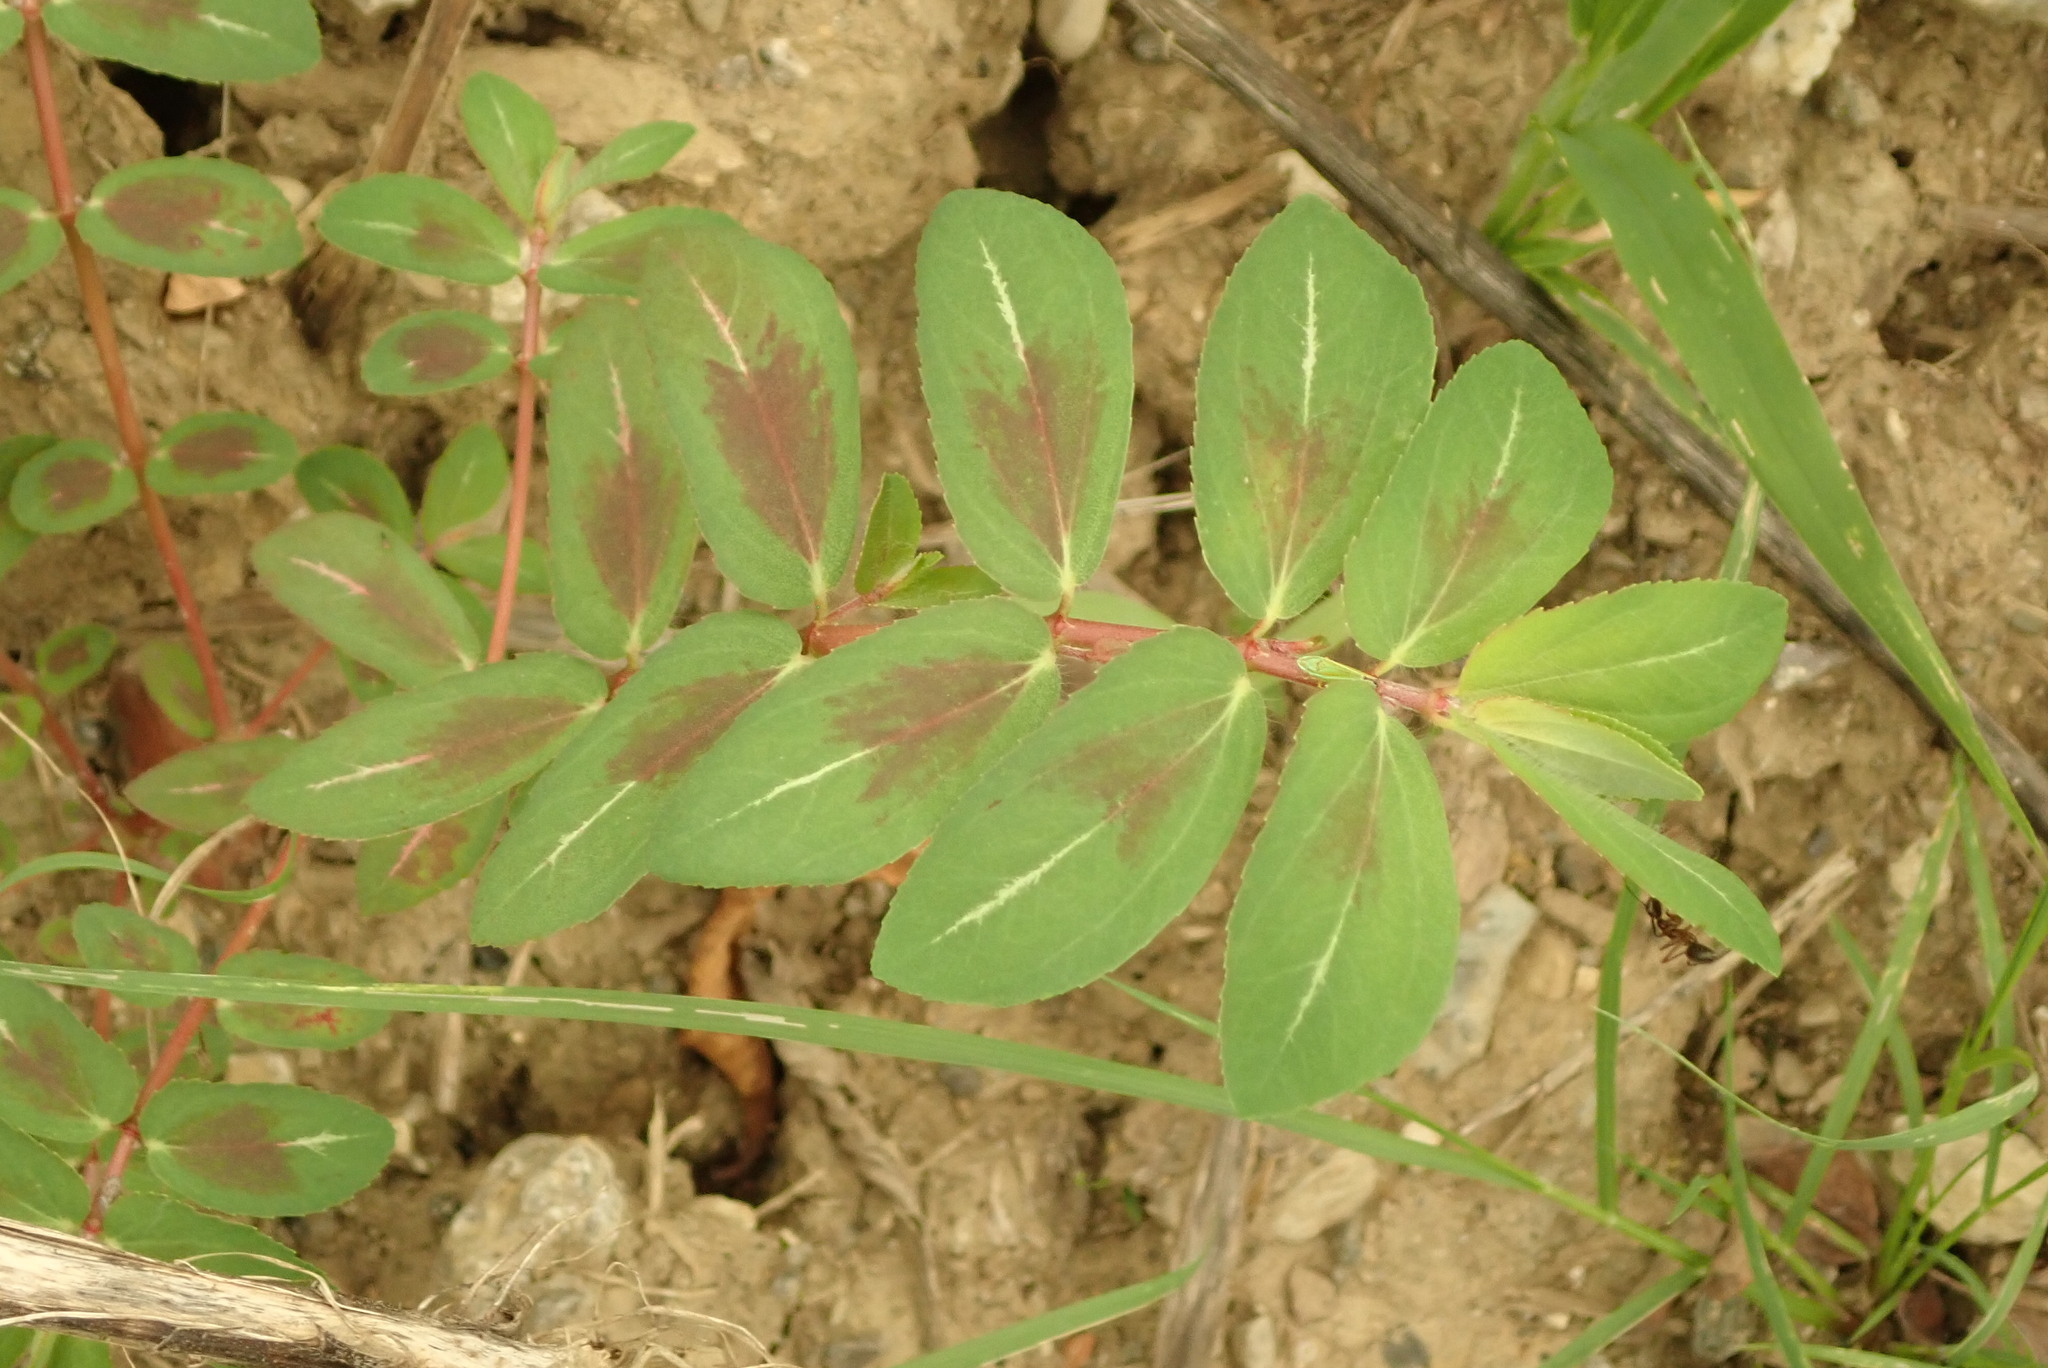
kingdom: Plantae
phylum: Tracheophyta
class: Magnoliopsida
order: Malpighiales
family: Euphorbiaceae
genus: Euphorbia
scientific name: Euphorbia nutans
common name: Eyebane
